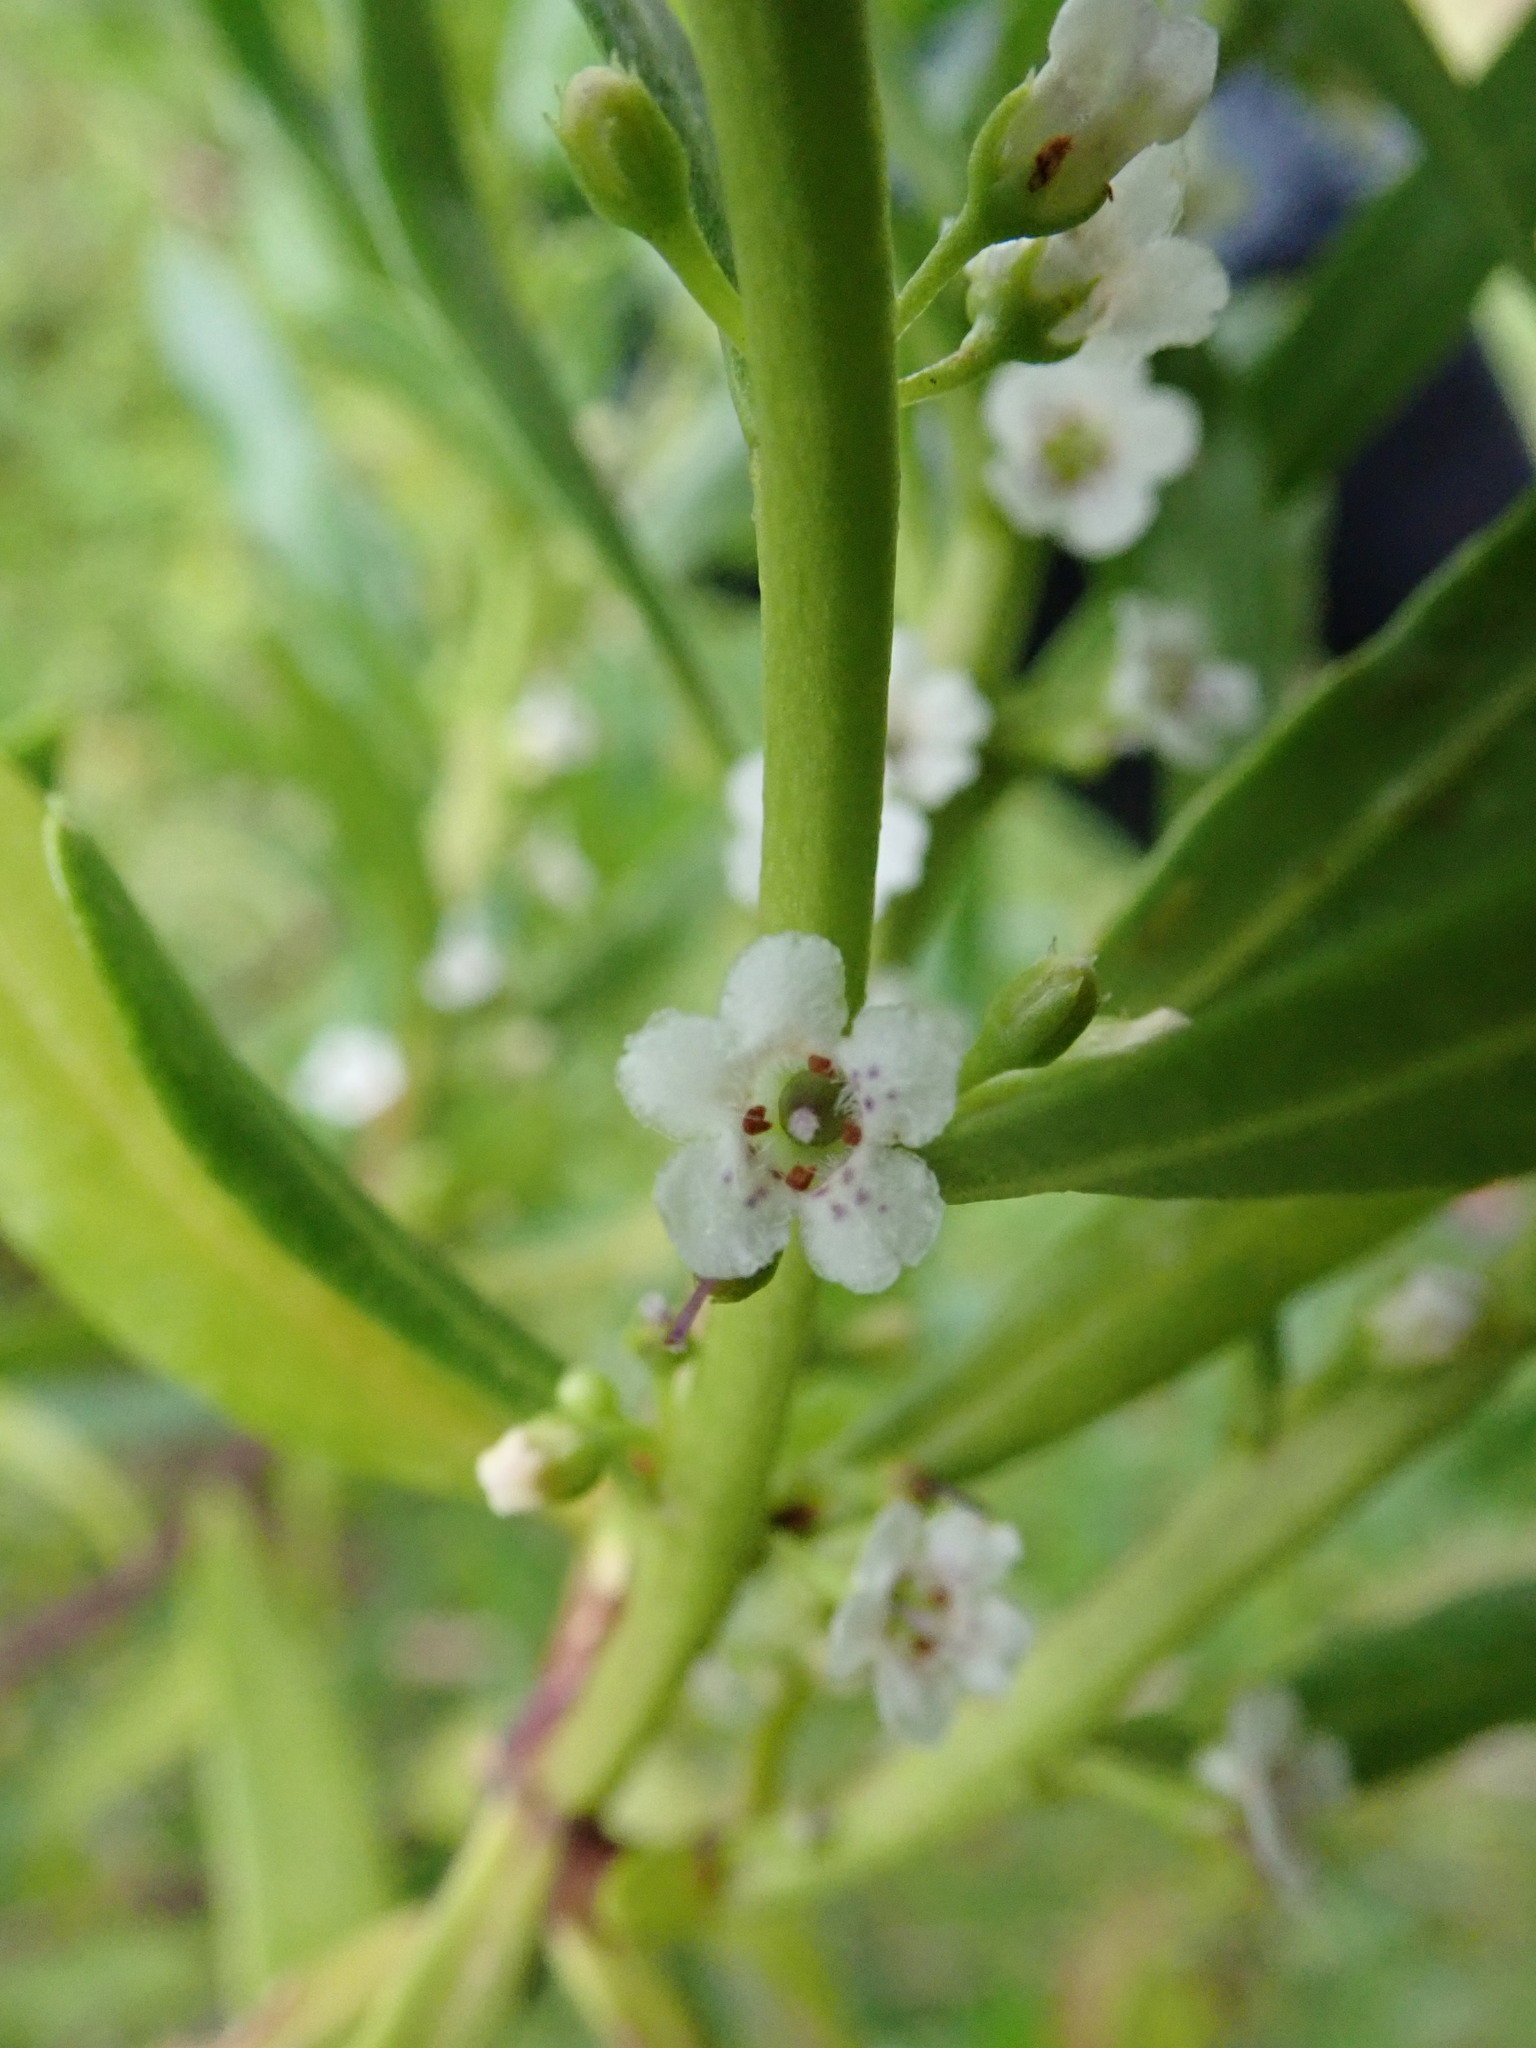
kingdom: Plantae
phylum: Tracheophyta
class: Magnoliopsida
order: Lamiales
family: Scrophulariaceae
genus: Myoporum
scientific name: Myoporum insulare
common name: Common boobialla
